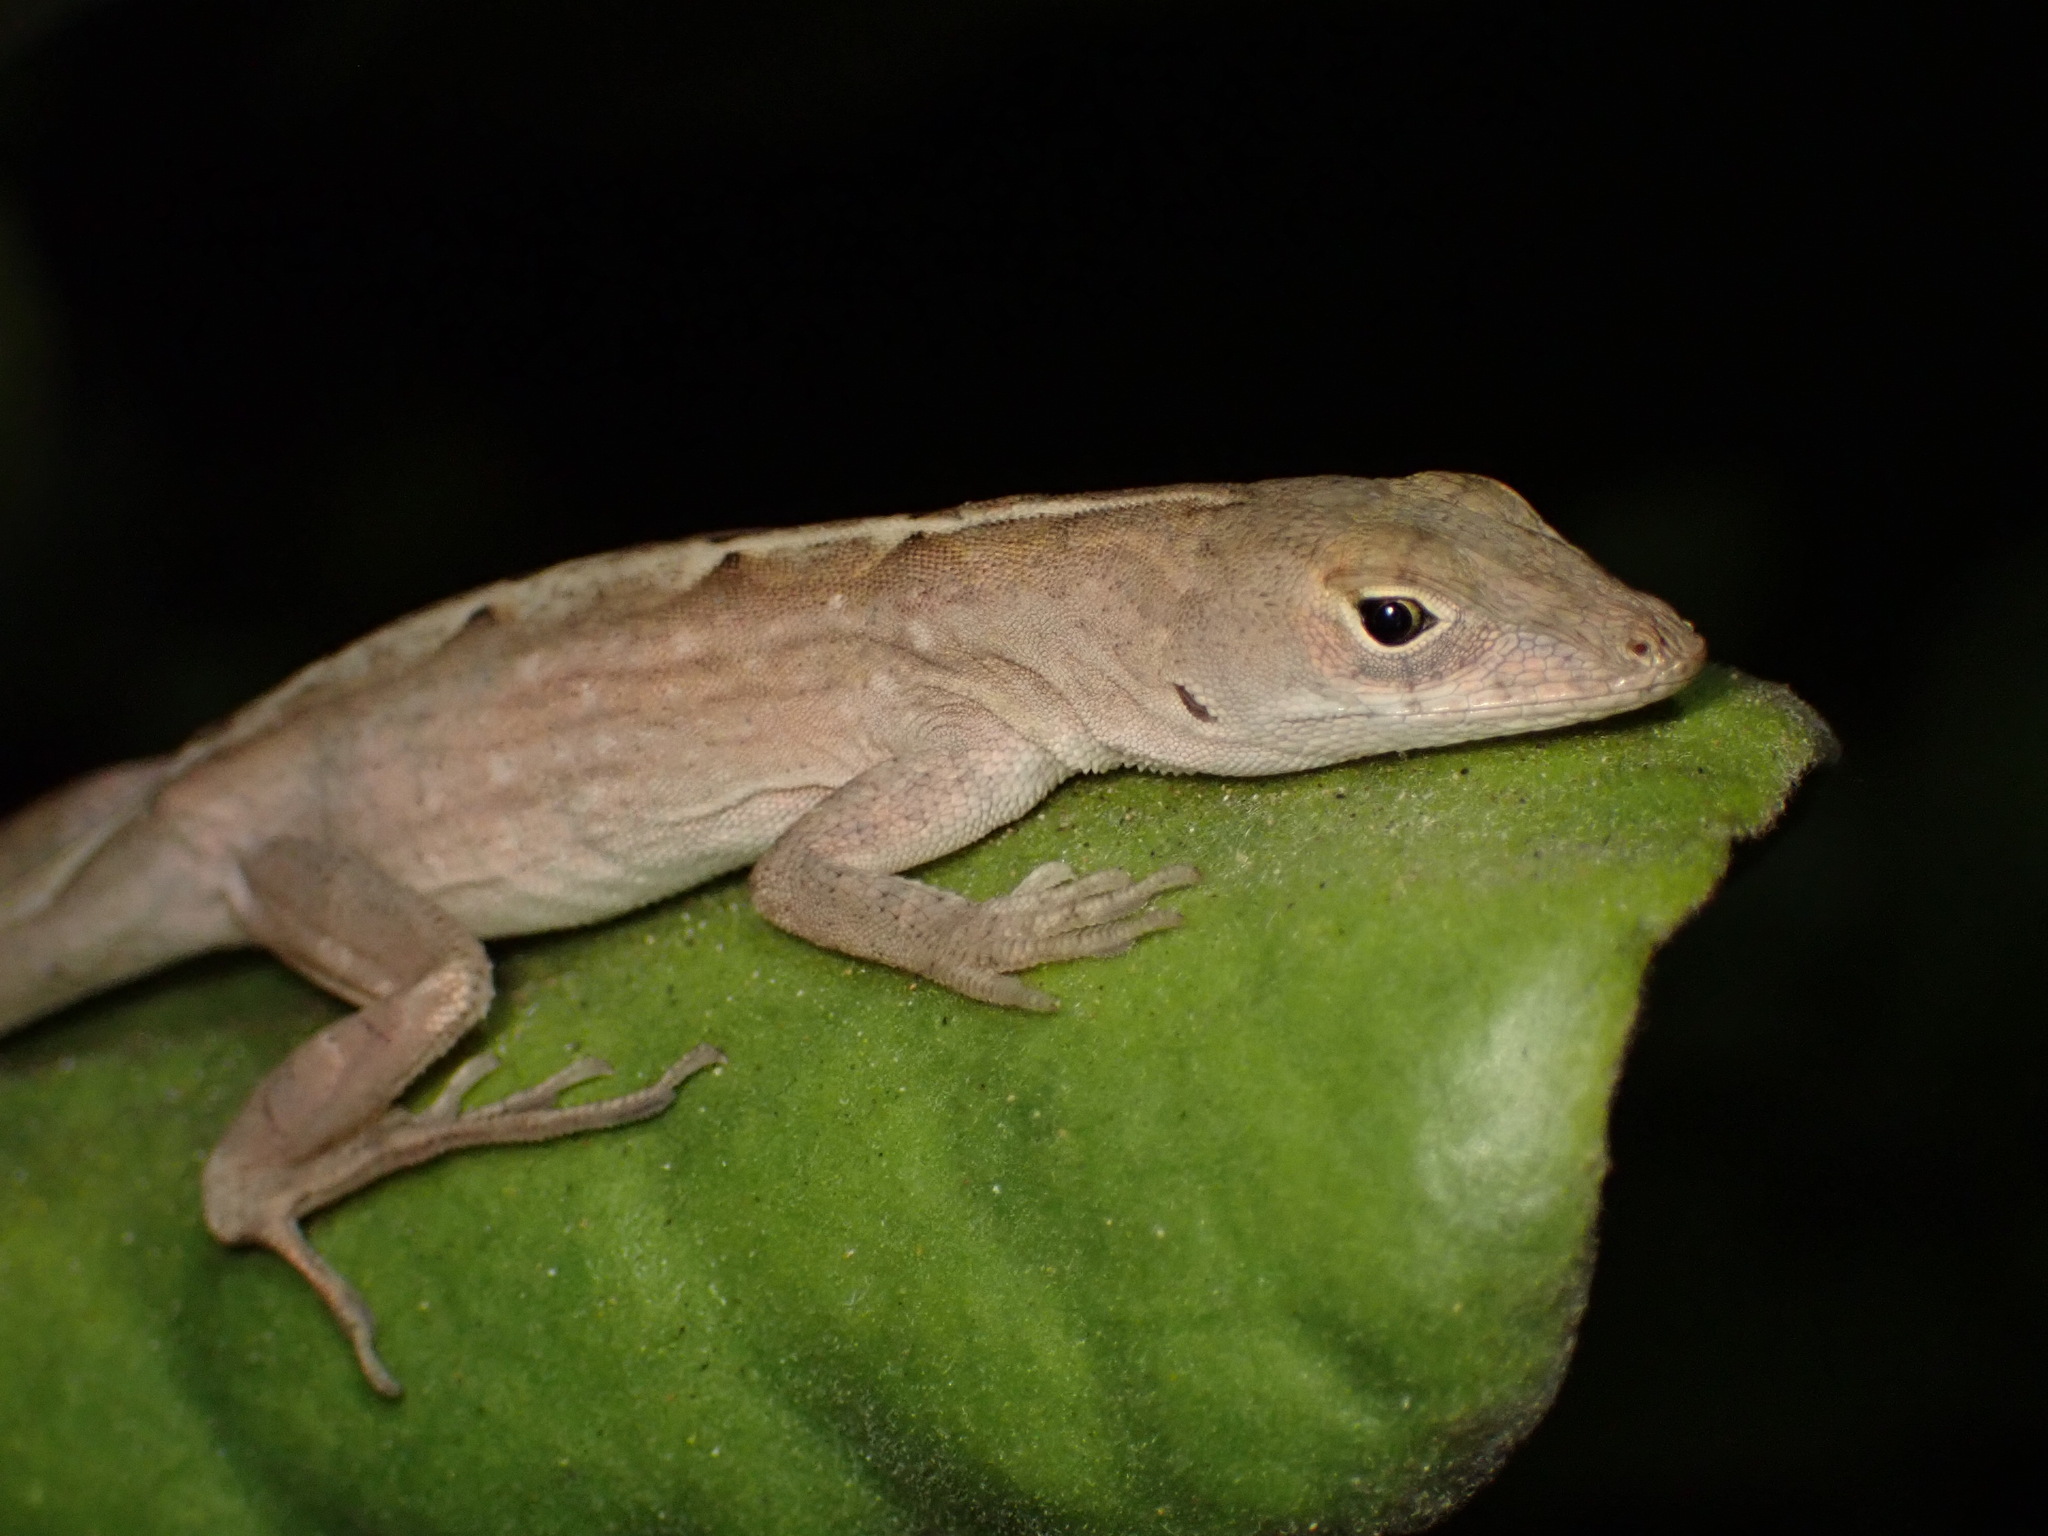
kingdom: Animalia
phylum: Chordata
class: Squamata
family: Dactyloidae
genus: Anolis
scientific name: Anolis sagrei
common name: Brown anole
